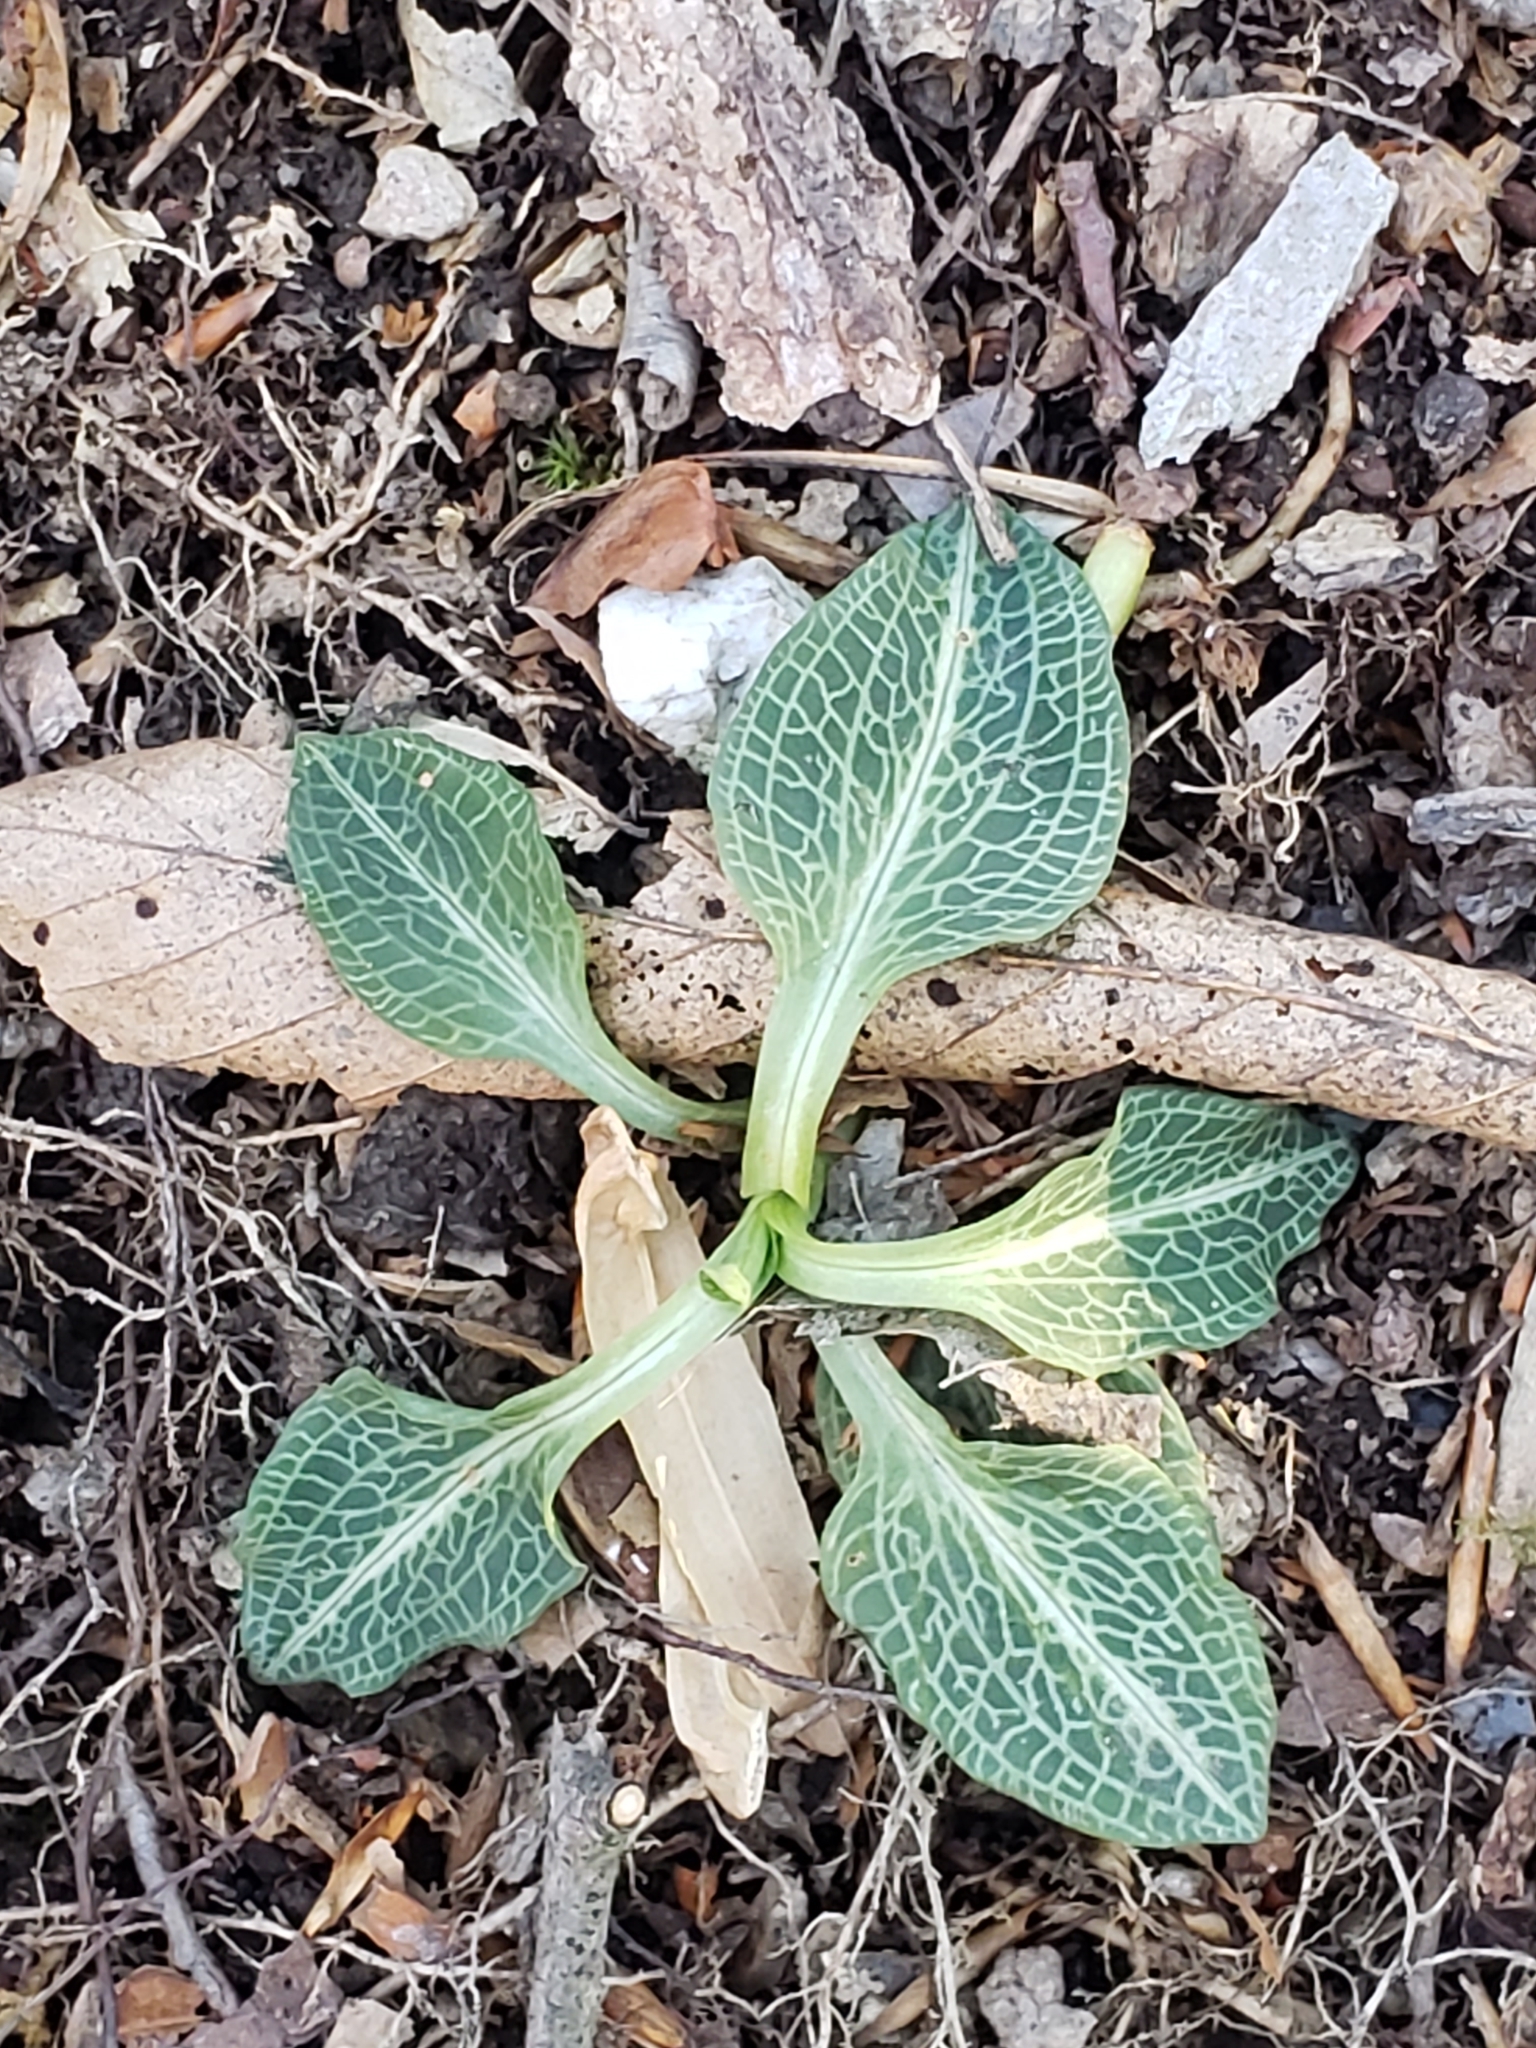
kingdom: Plantae
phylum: Tracheophyta
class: Liliopsida
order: Asparagales
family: Orchidaceae
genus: Goodyera
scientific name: Goodyera pubescens
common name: Downy rattlesnake-plantain
